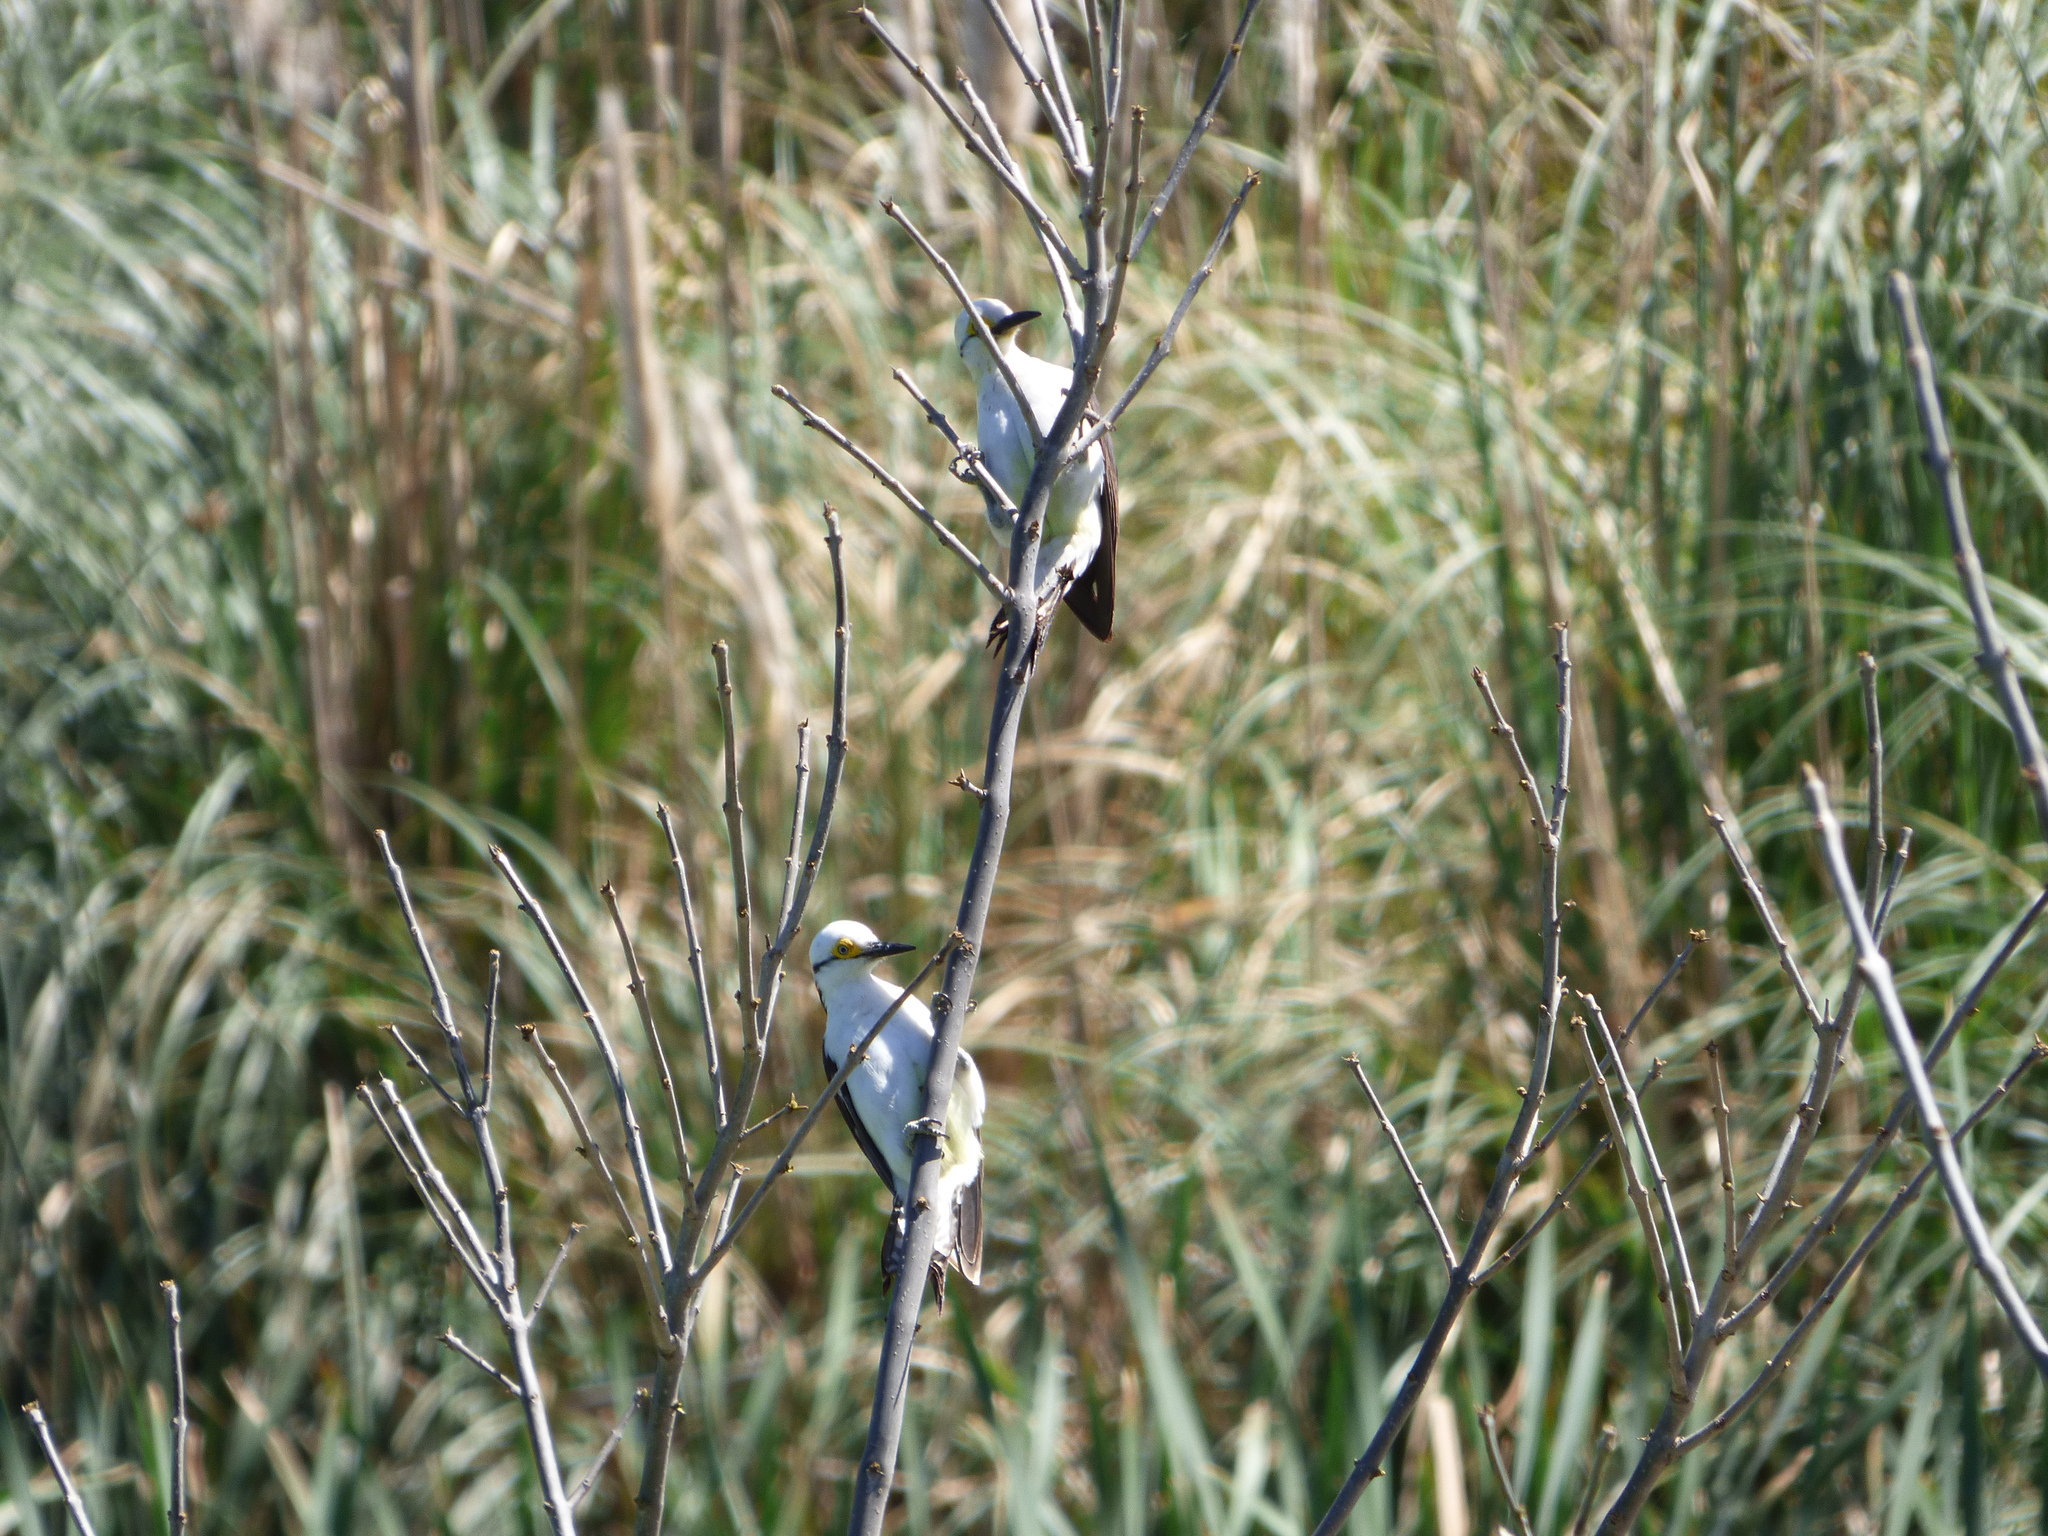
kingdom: Animalia
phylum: Chordata
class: Aves
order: Piciformes
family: Picidae
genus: Melanerpes
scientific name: Melanerpes candidus
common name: White woodpecker
